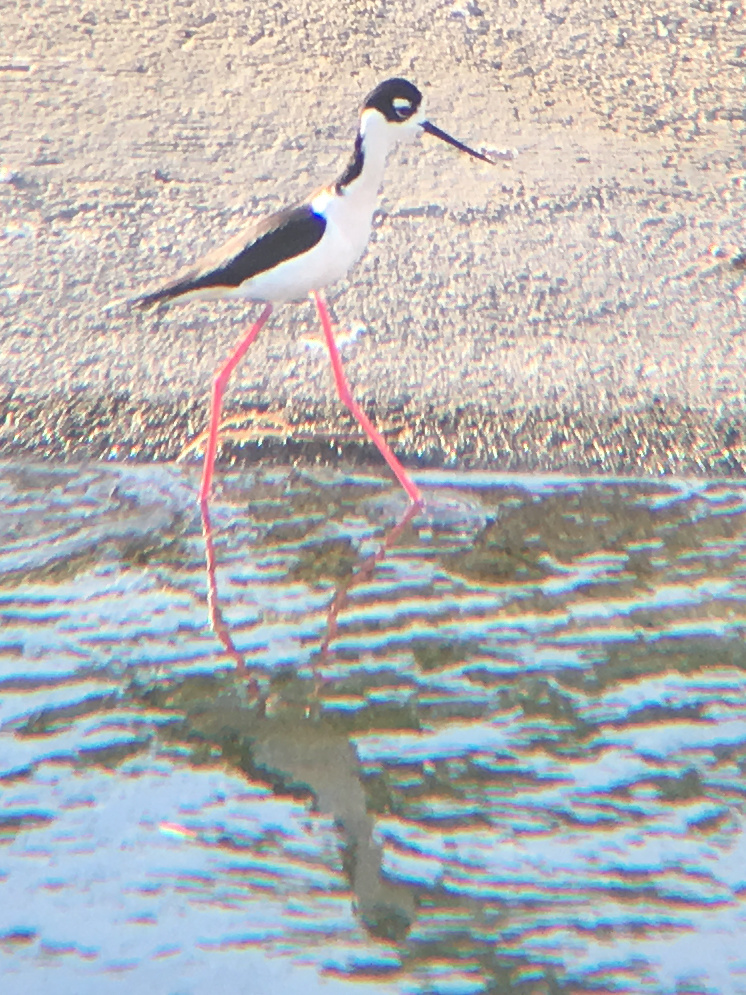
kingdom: Animalia
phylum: Chordata
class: Aves
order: Charadriiformes
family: Recurvirostridae
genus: Himantopus
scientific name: Himantopus mexicanus
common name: Black-necked stilt
